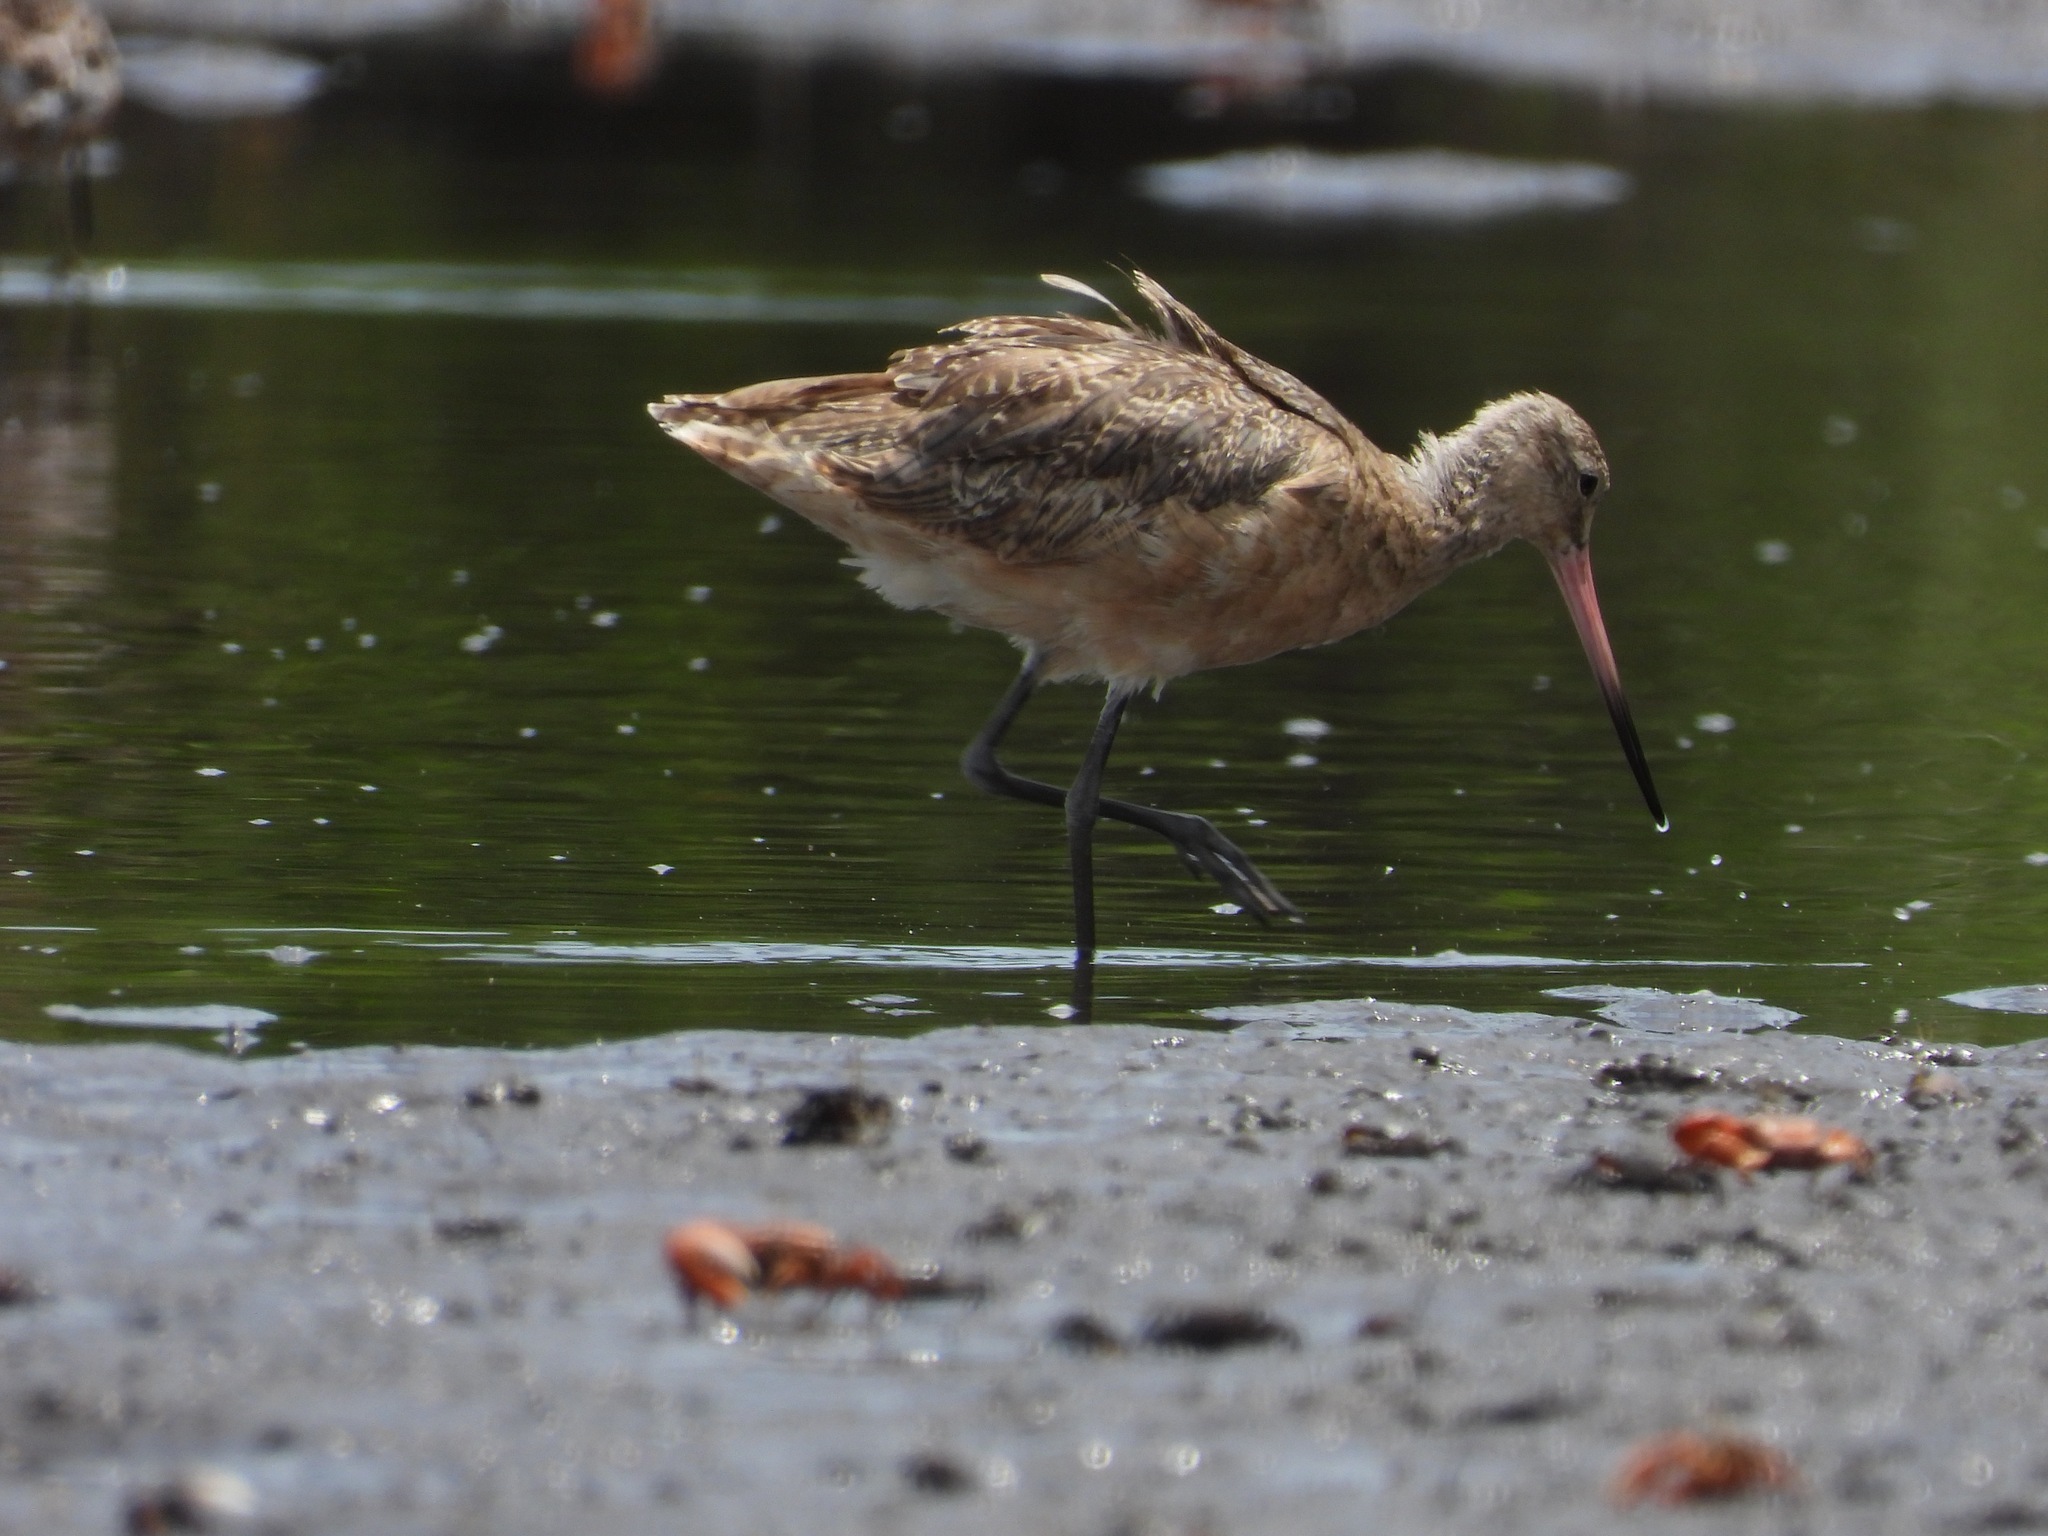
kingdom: Animalia
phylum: Chordata
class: Aves
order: Charadriiformes
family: Scolopacidae
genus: Limosa
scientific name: Limosa fedoa
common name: Marbled godwit
